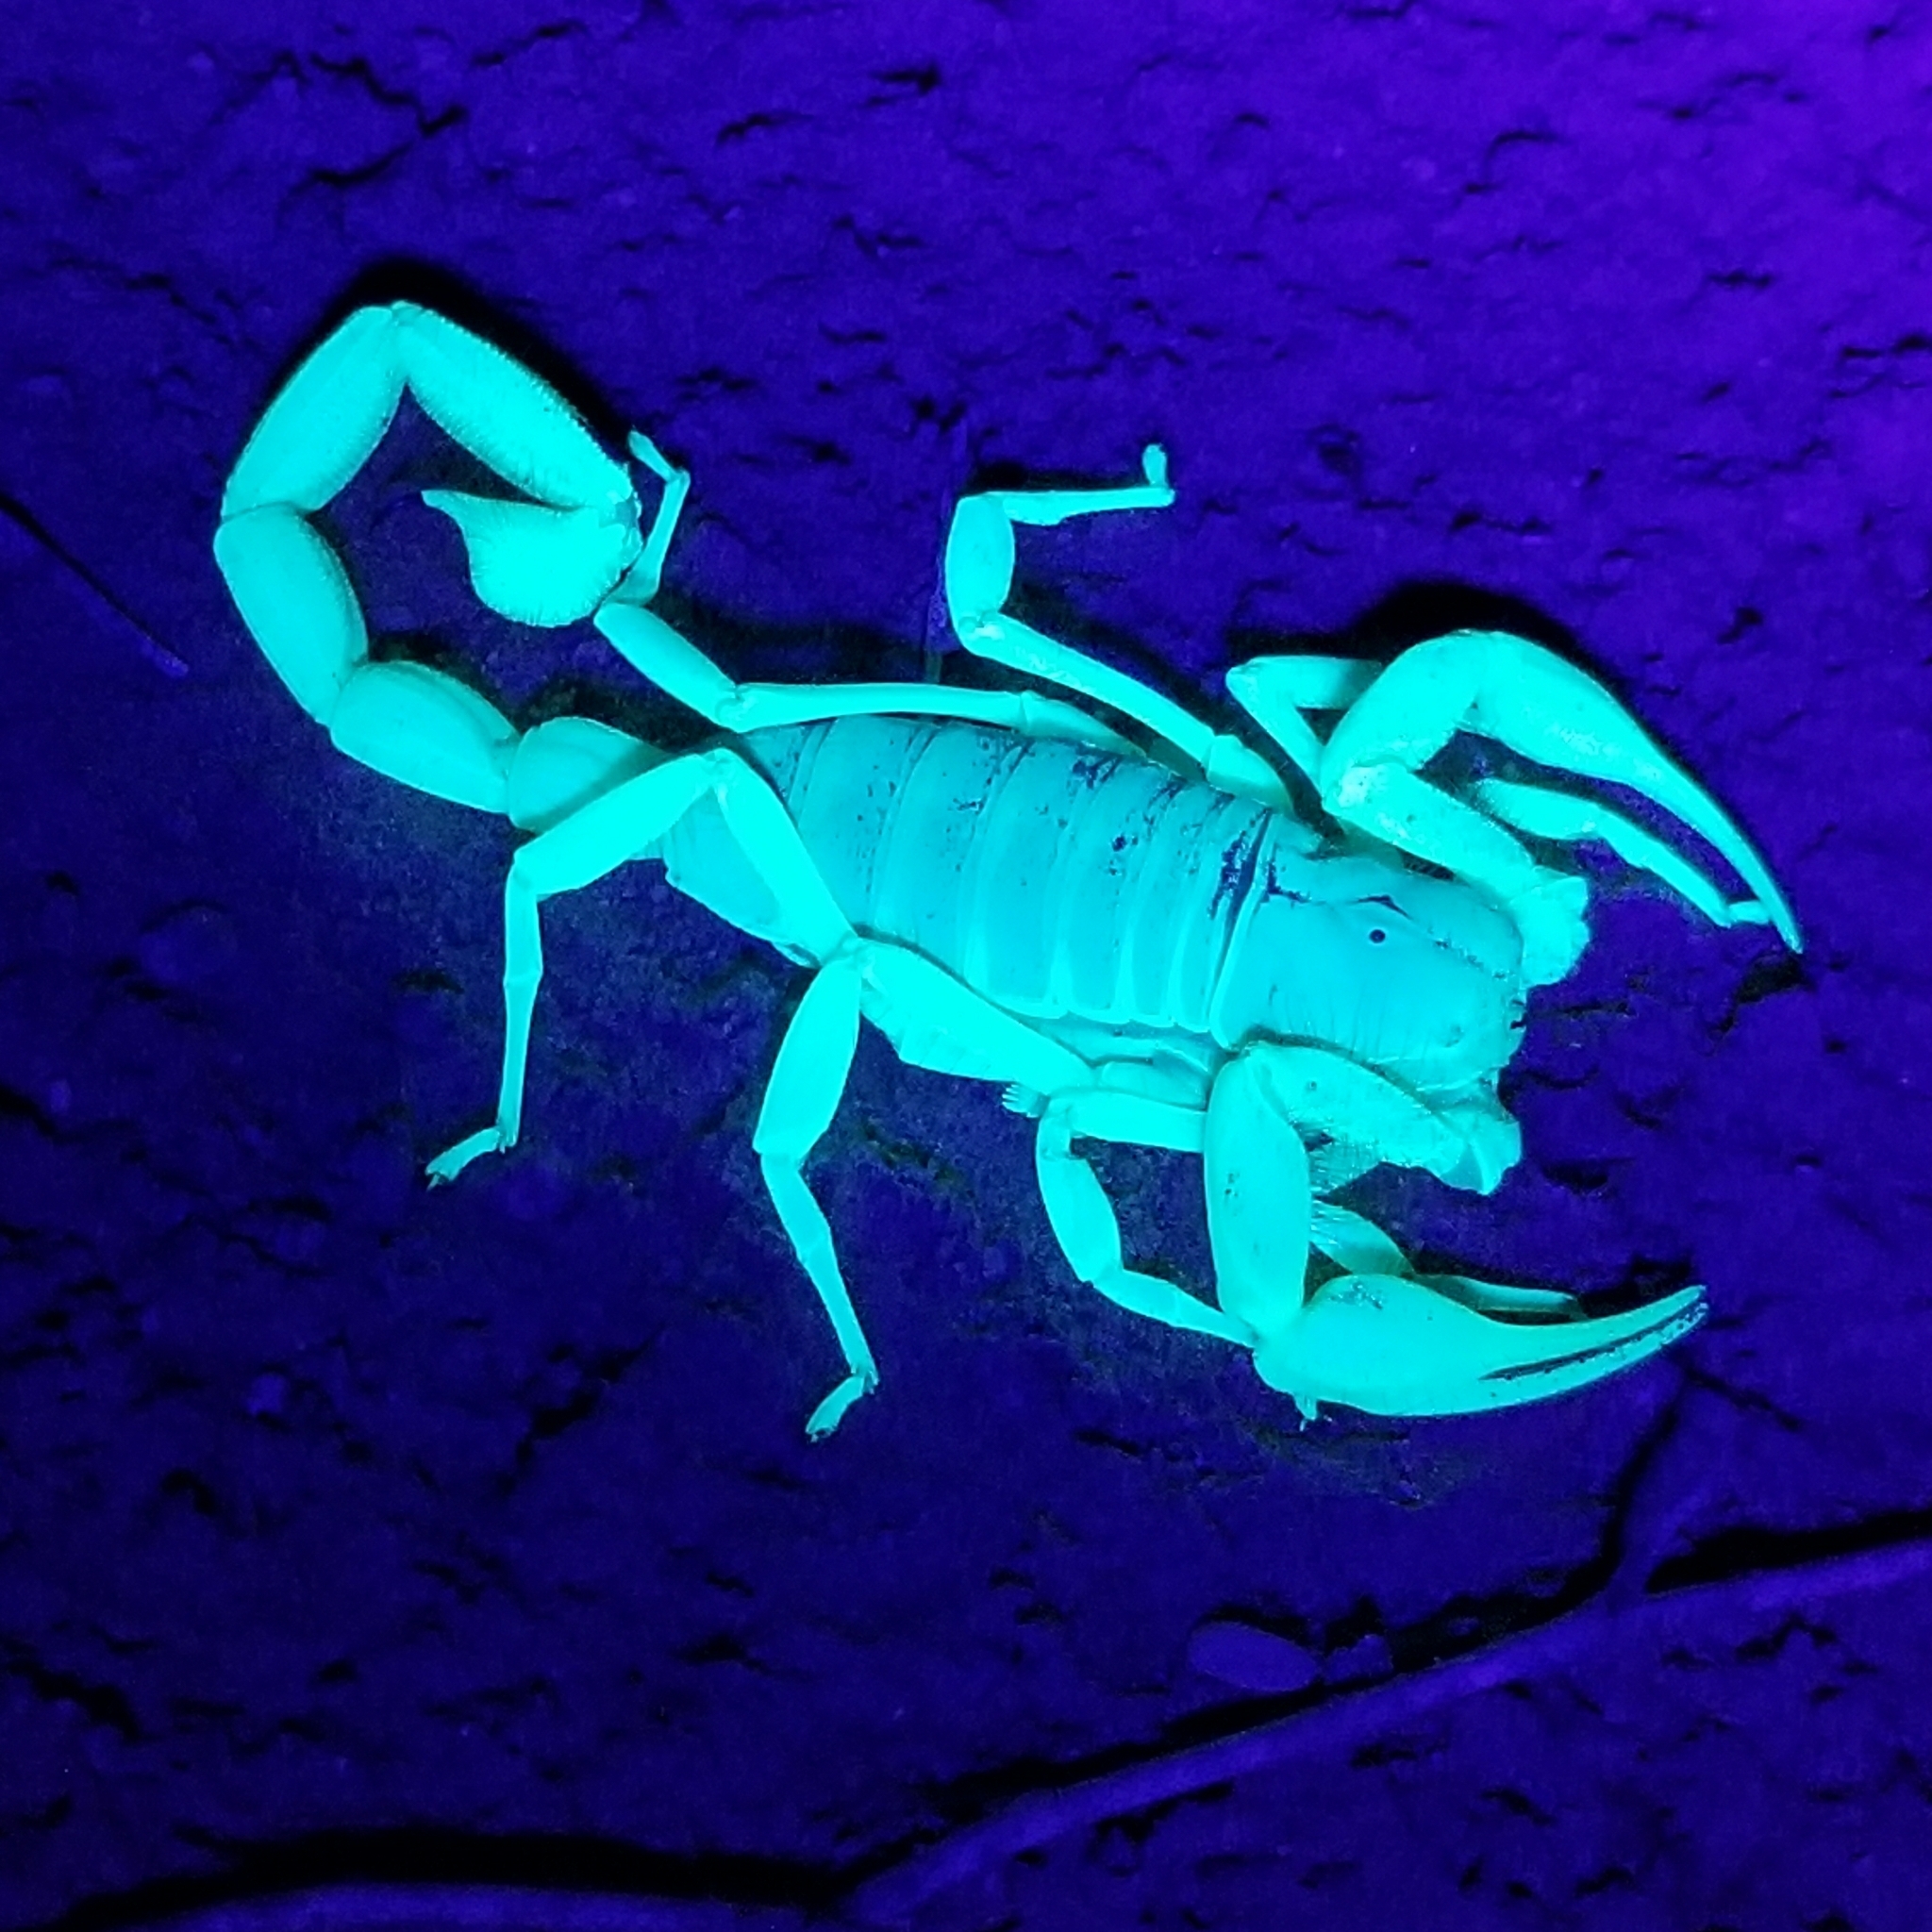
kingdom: Animalia
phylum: Arthropoda
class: Arachnida
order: Scorpiones
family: Hadruridae
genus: Hadrurus
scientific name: Hadrurus arizonensis
